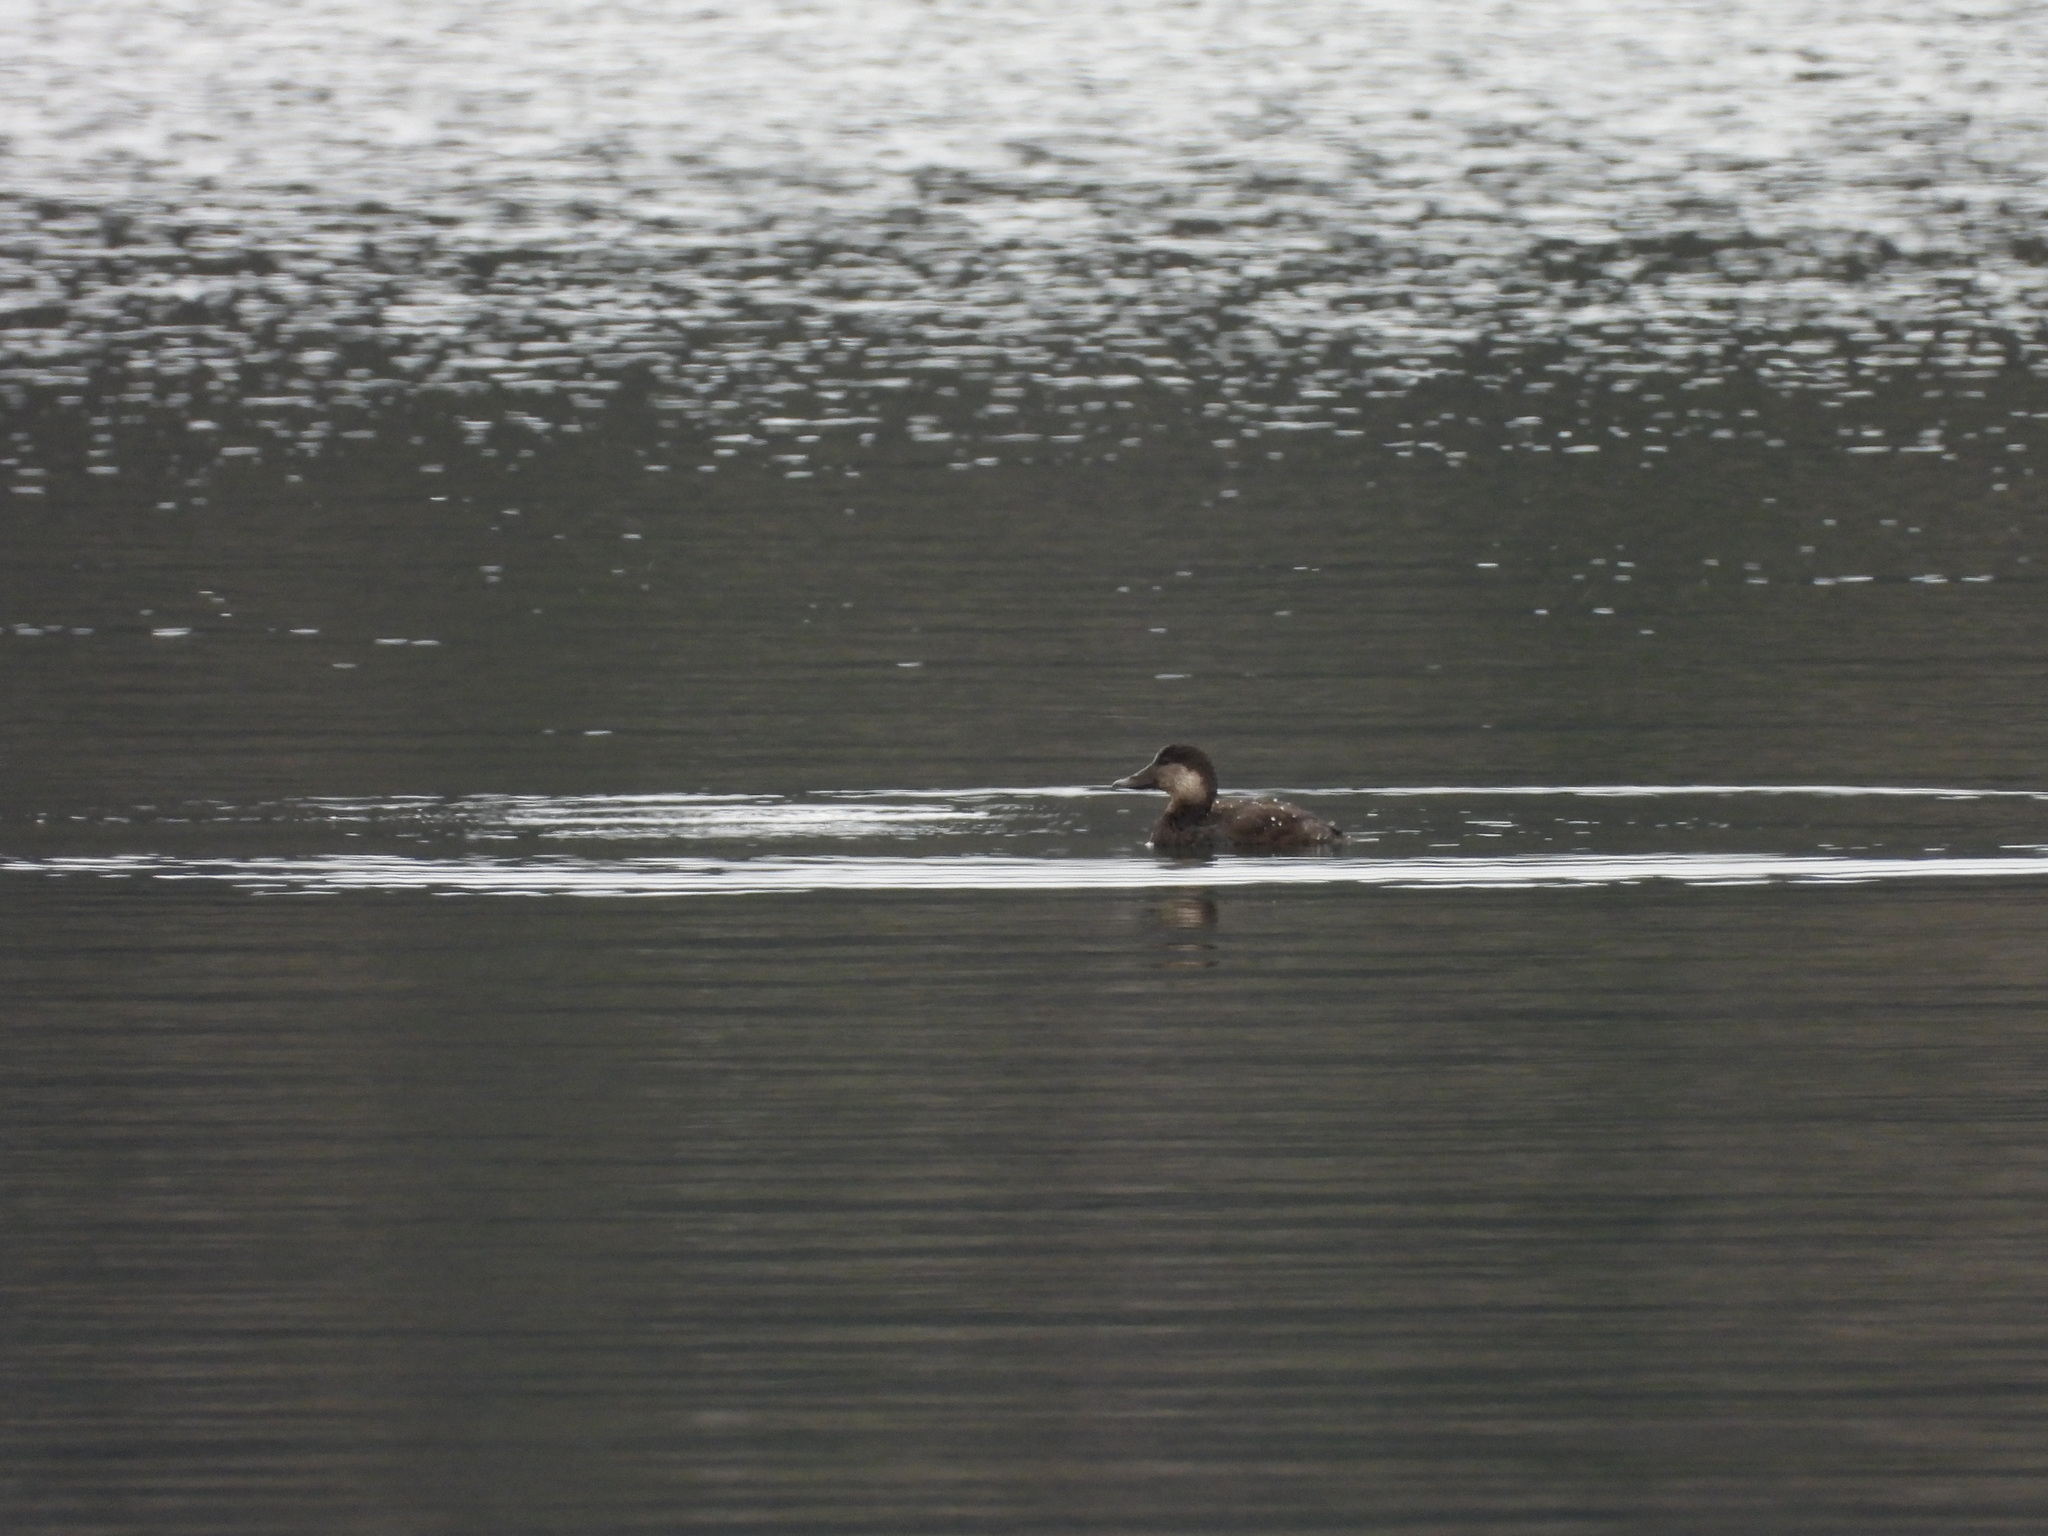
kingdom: Animalia
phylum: Chordata
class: Aves
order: Anseriformes
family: Anatidae
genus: Melanitta
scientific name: Melanitta americana
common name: Black scoter
